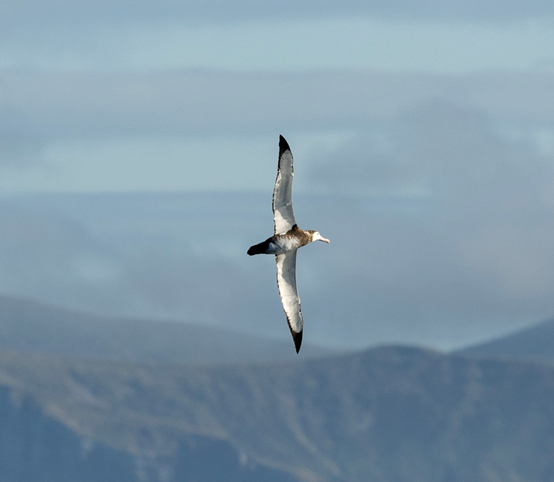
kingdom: Animalia
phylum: Chordata
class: Aves
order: Procellariiformes
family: Diomedeidae
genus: Diomedea
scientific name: Diomedea antipodensis
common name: Antipodean albatross
